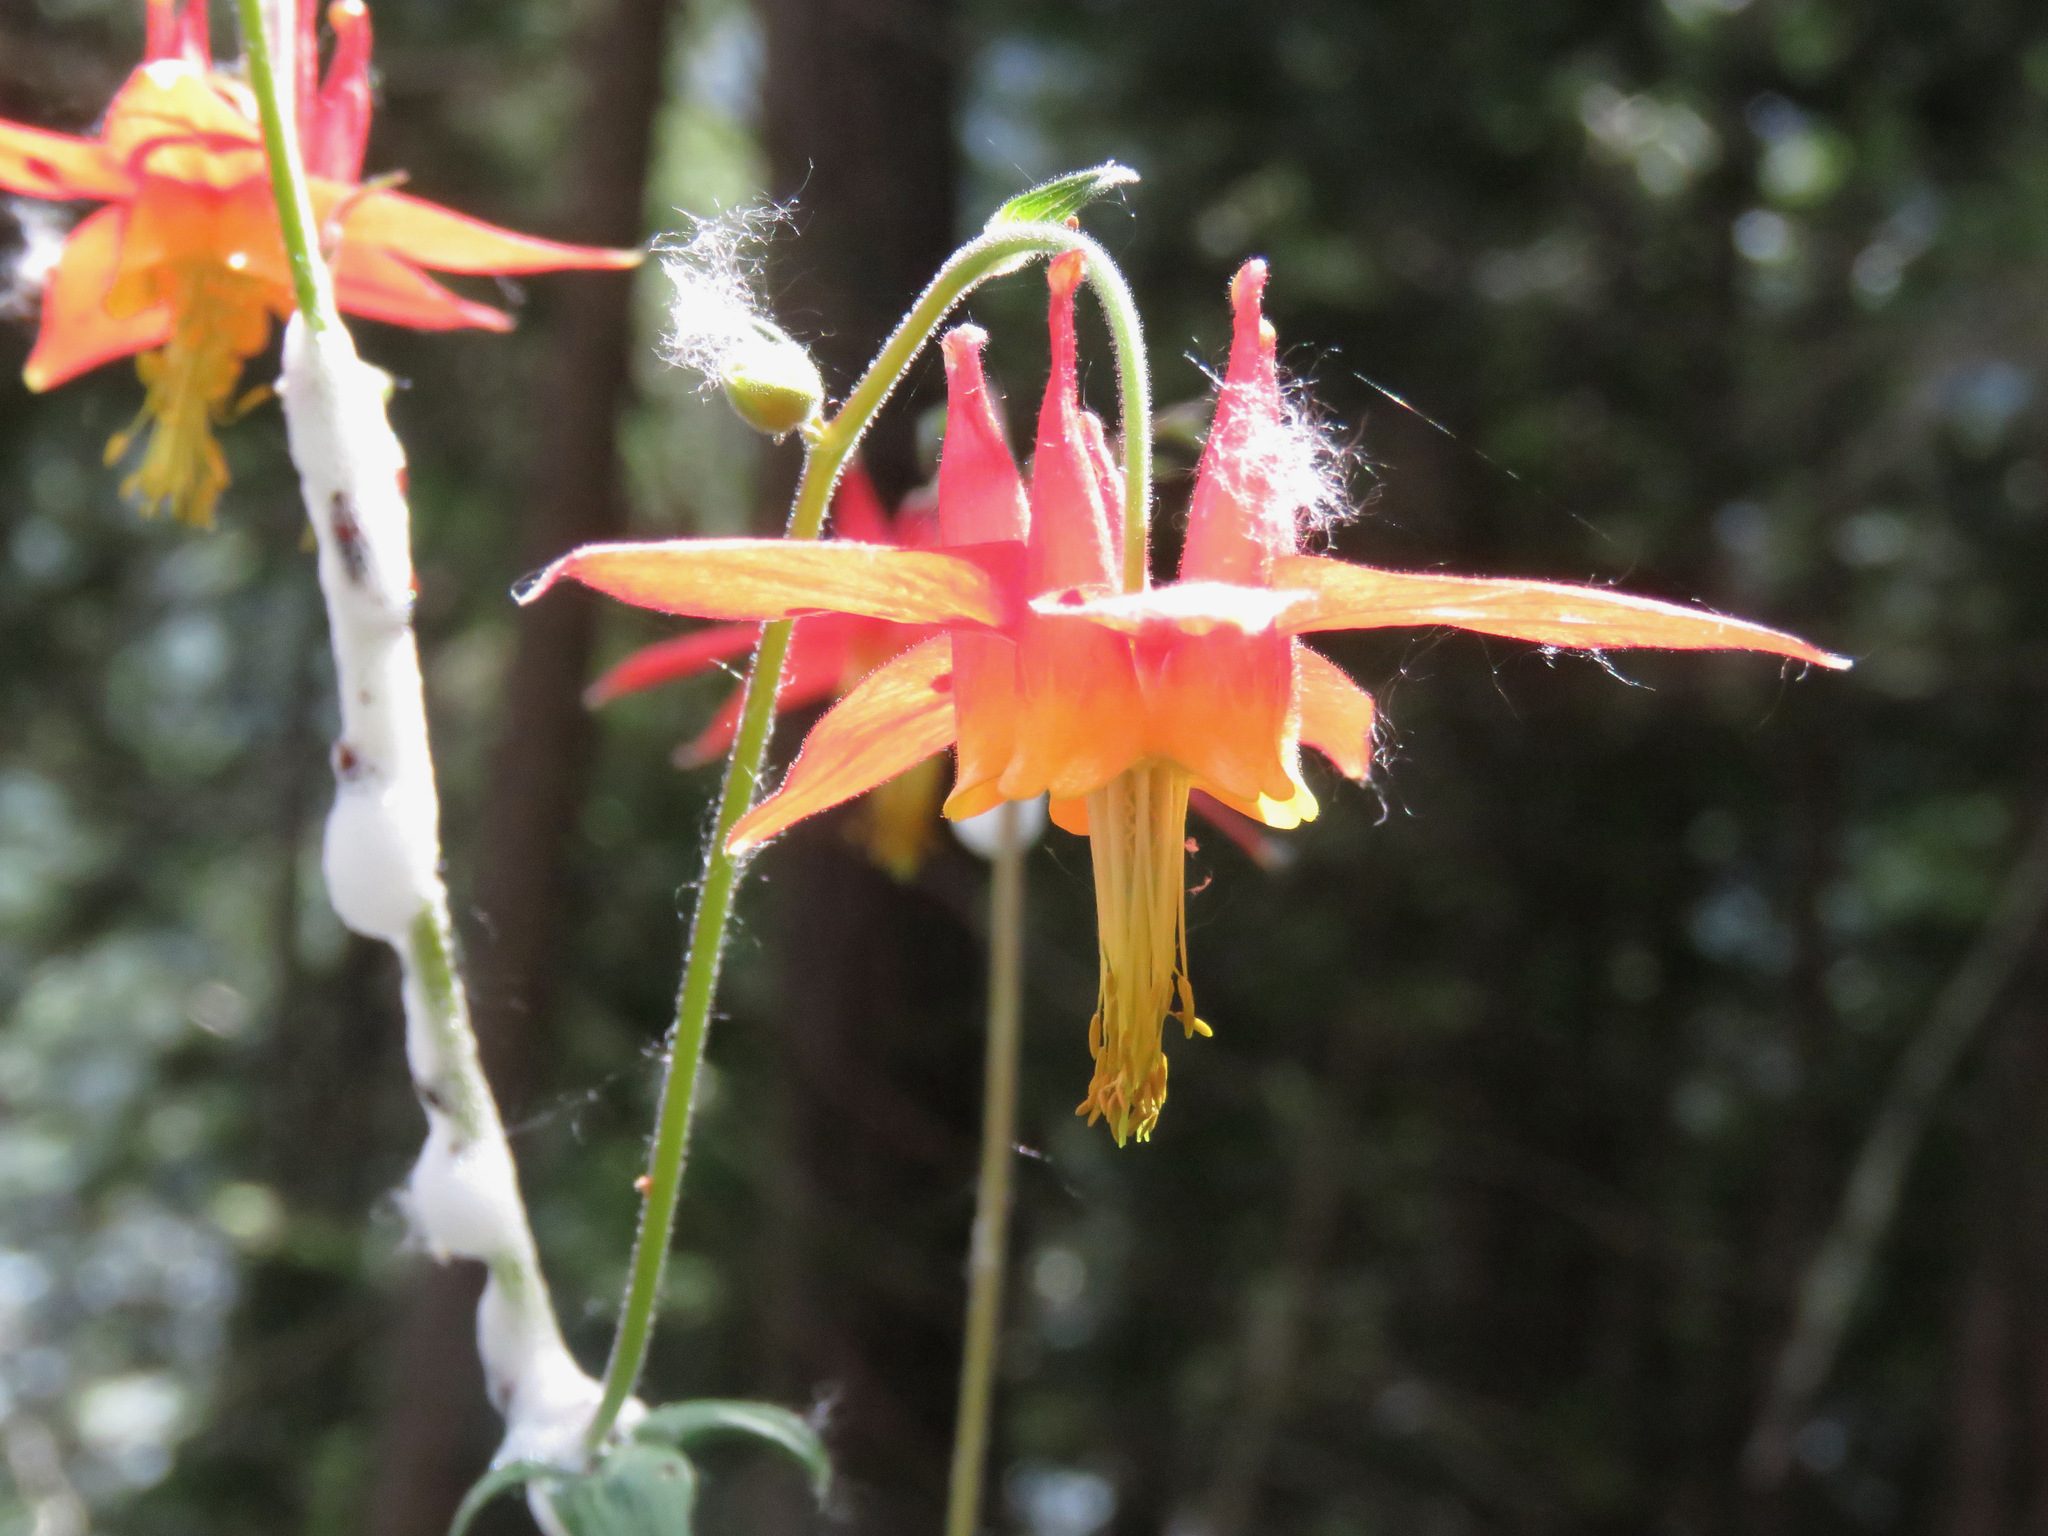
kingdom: Plantae
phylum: Tracheophyta
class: Magnoliopsida
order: Ranunculales
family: Ranunculaceae
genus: Aquilegia
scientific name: Aquilegia formosa
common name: Sitka columbine
